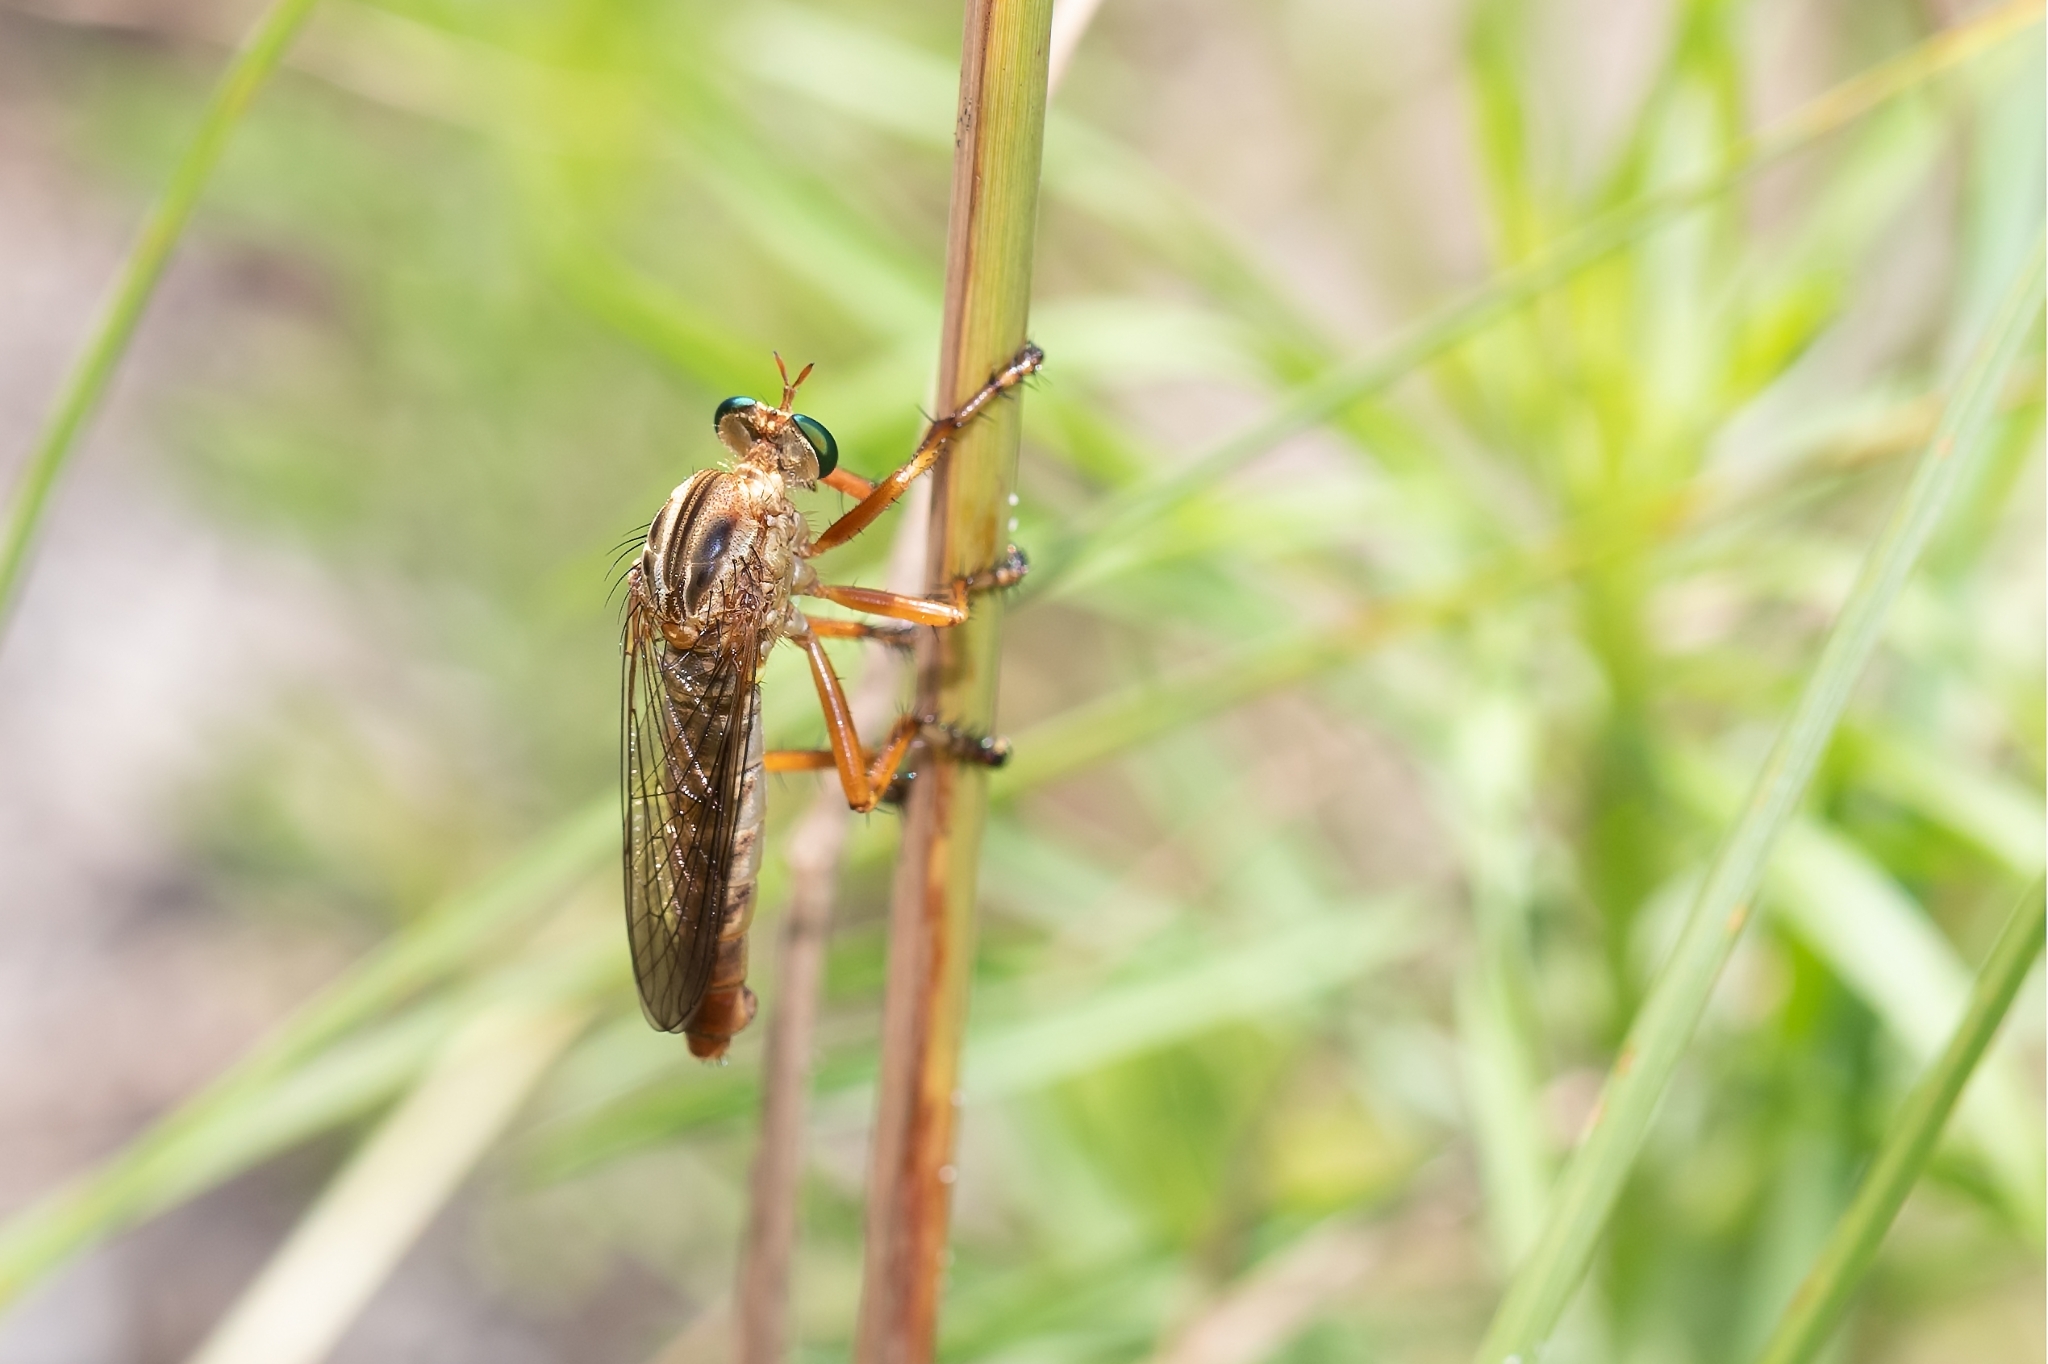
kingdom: Animalia
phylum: Arthropoda
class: Insecta
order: Diptera
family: Asilidae
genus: Diogmites
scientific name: Diogmites salutans
